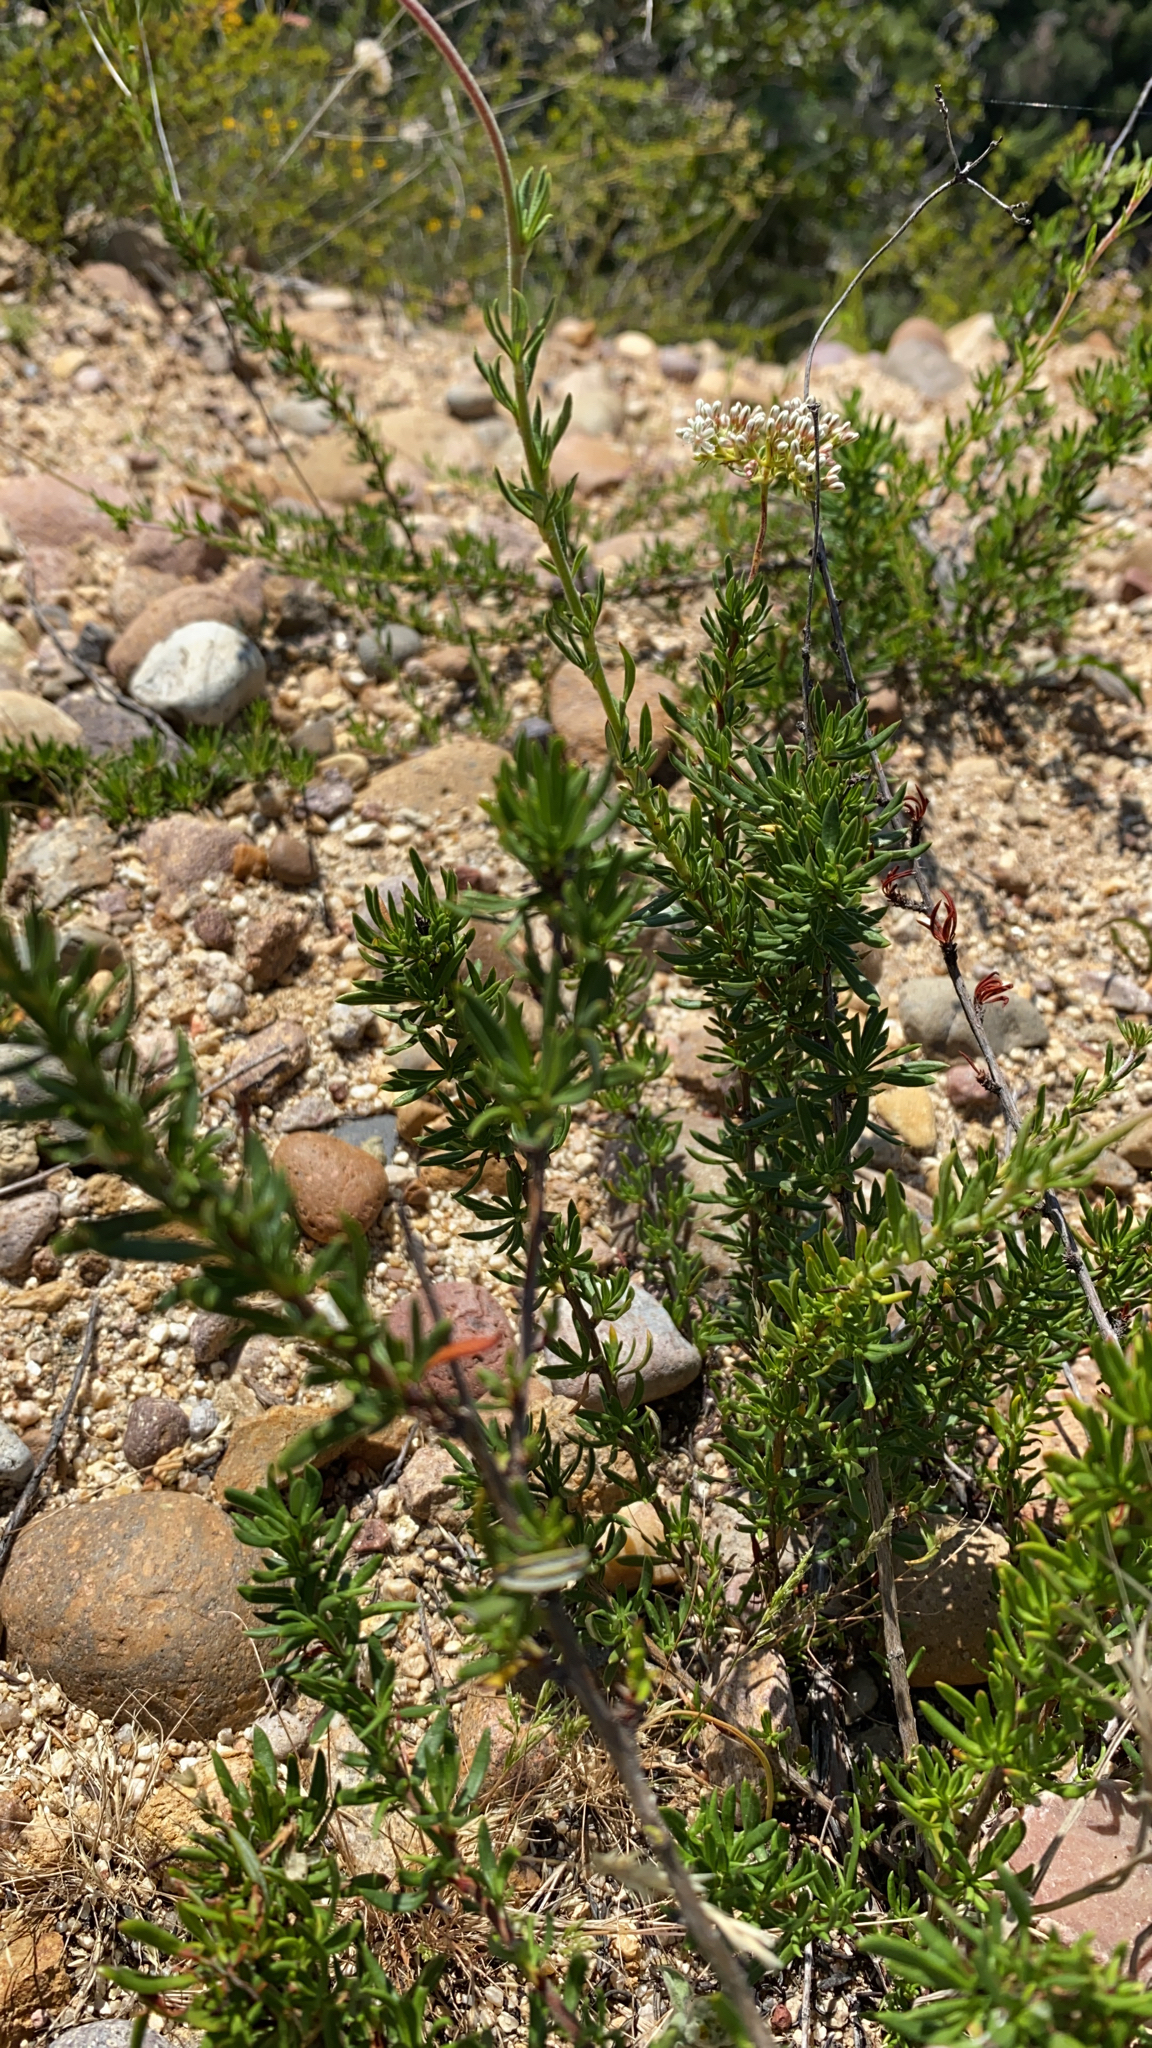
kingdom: Plantae
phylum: Tracheophyta
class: Magnoliopsida
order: Caryophyllales
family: Polygonaceae
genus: Eriogonum
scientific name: Eriogonum fasciculatum
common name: California wild buckwheat
